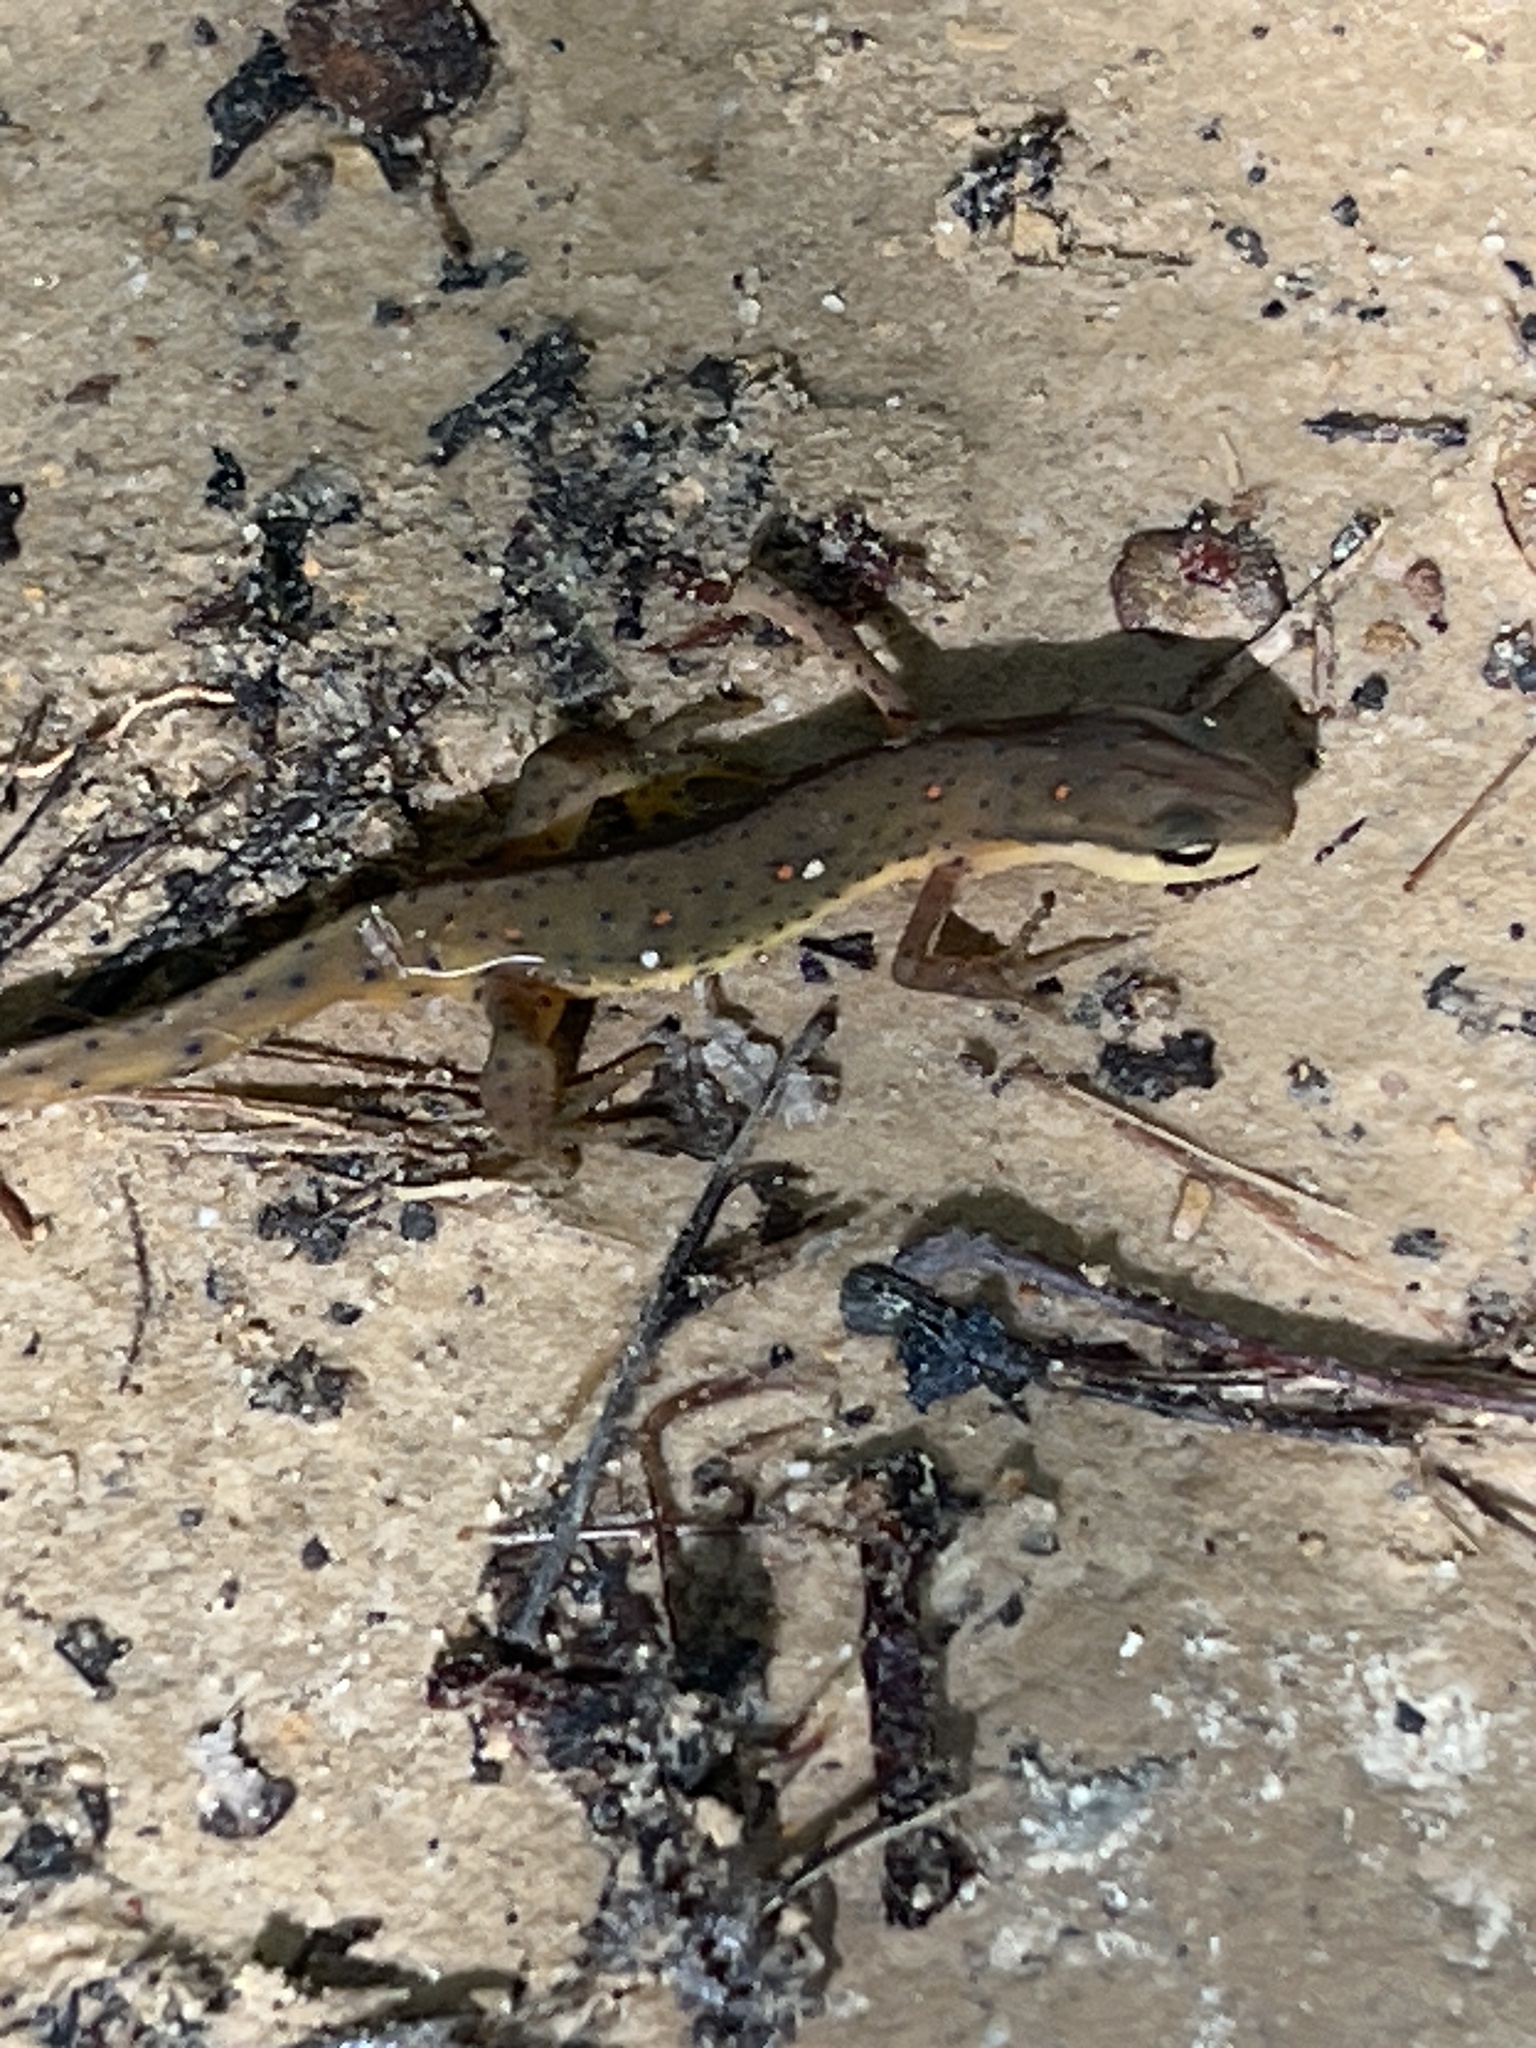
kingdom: Animalia
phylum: Chordata
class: Amphibia
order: Caudata
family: Salamandridae
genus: Notophthalmus
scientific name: Notophthalmus viridescens
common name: Eastern newt
